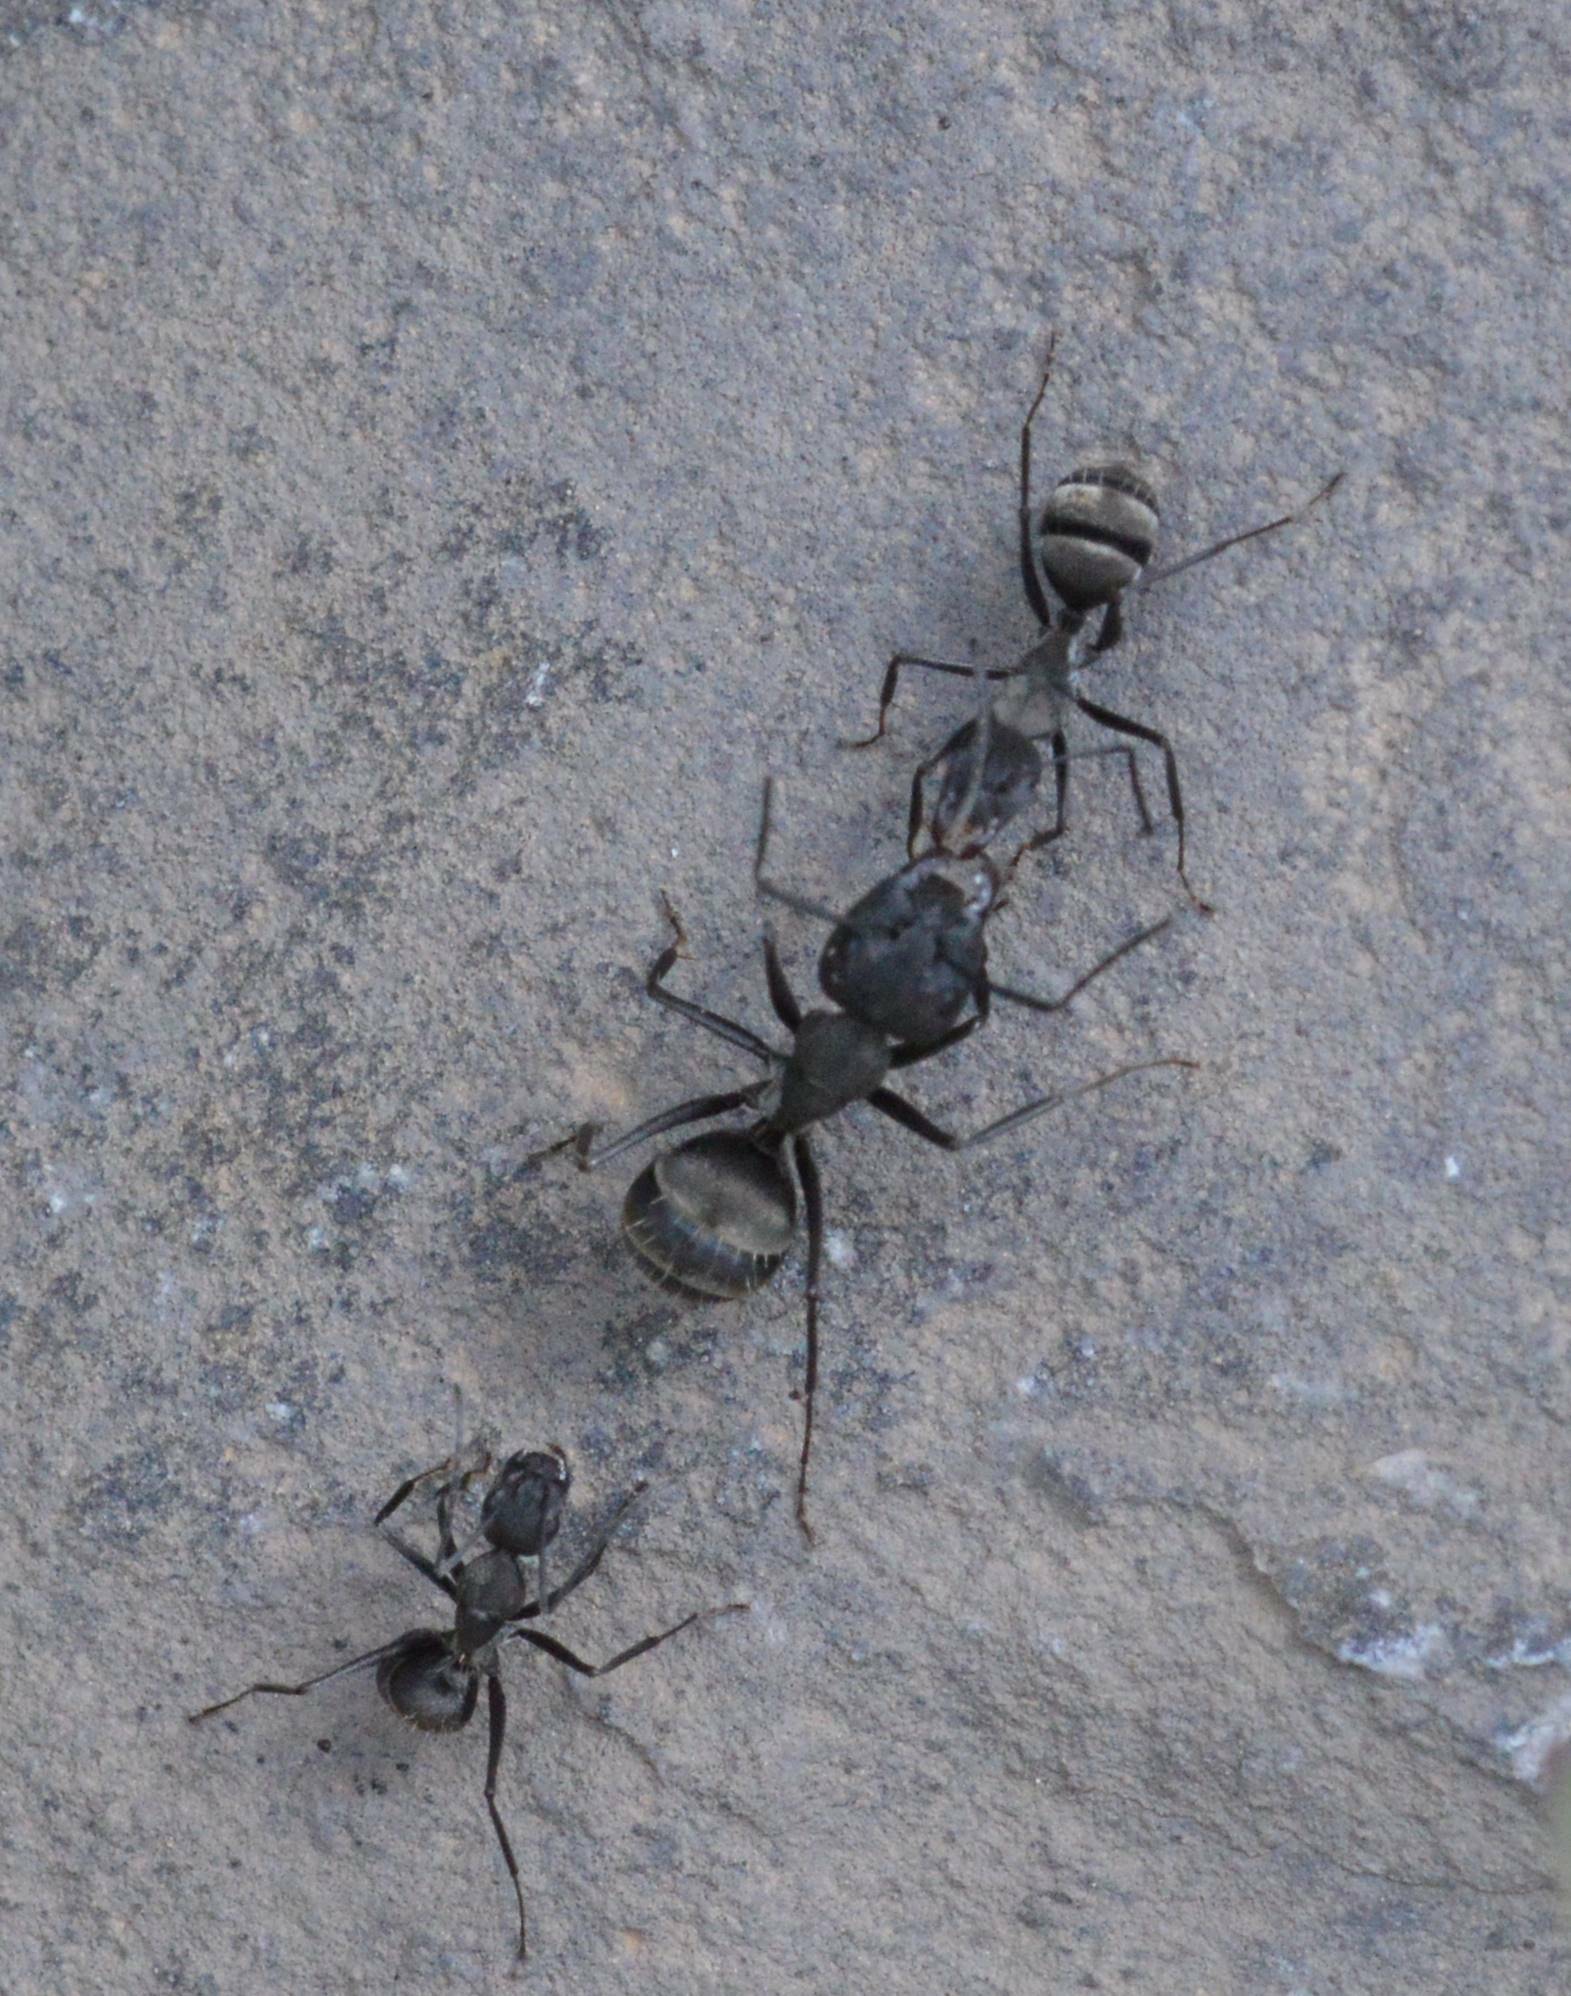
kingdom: Animalia
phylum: Arthropoda
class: Insecta
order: Hymenoptera
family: Formicidae
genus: Camponotus
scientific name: Camponotus micans
